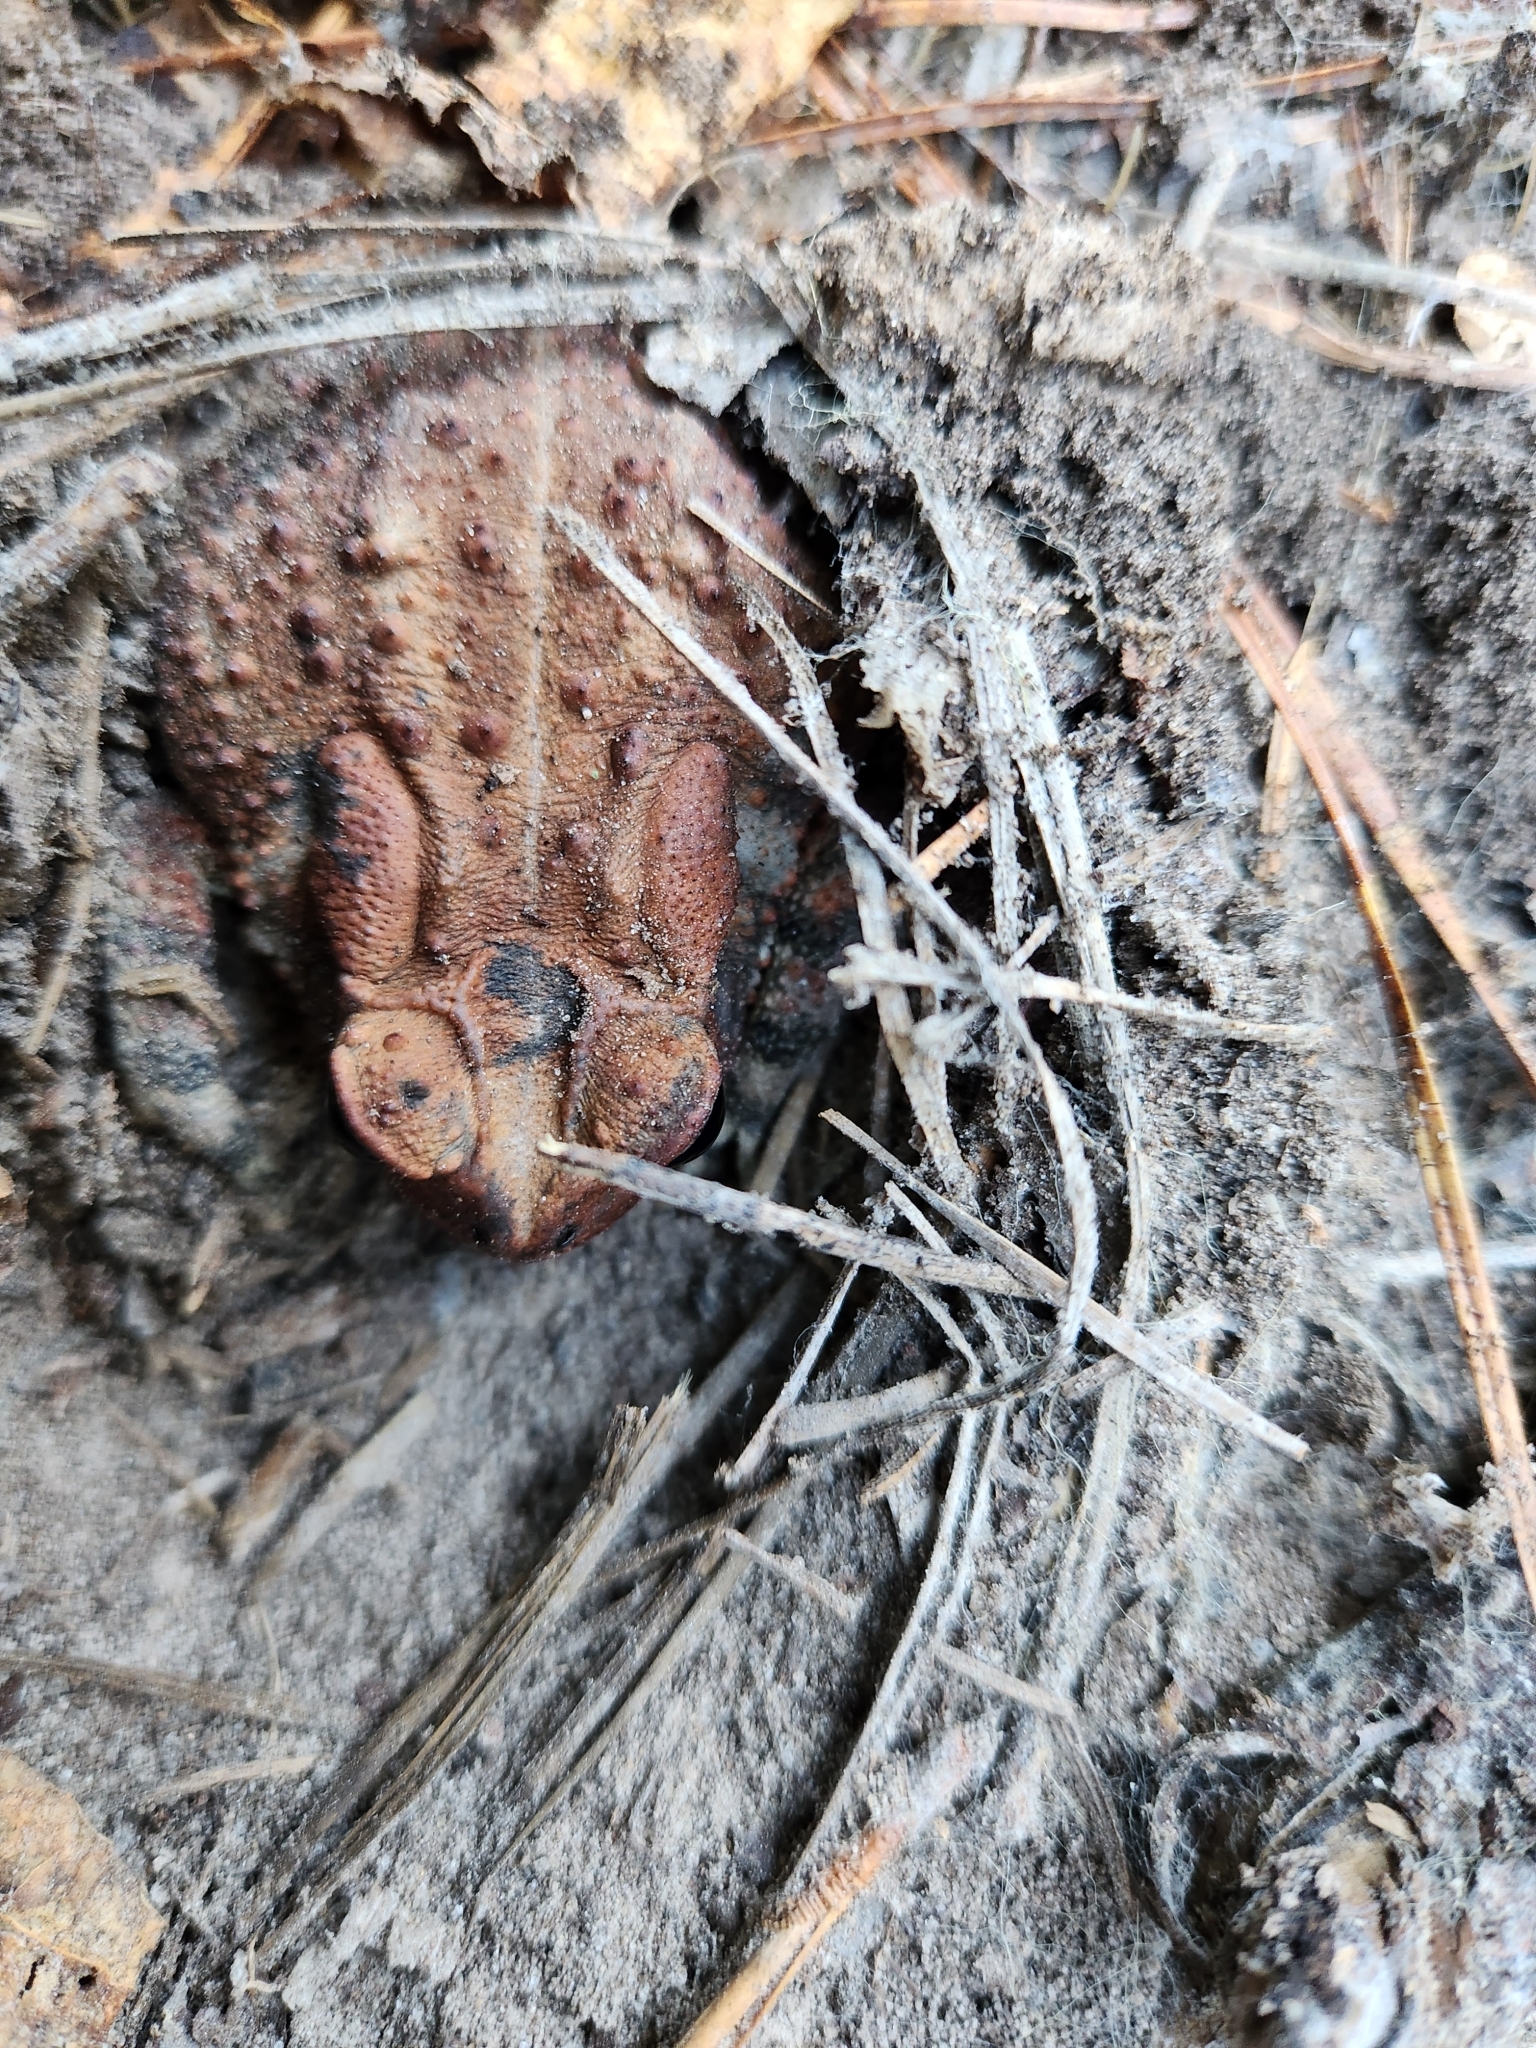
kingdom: Animalia
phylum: Chordata
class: Amphibia
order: Anura
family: Bufonidae
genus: Anaxyrus
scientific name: Anaxyrus americanus
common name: American toad
